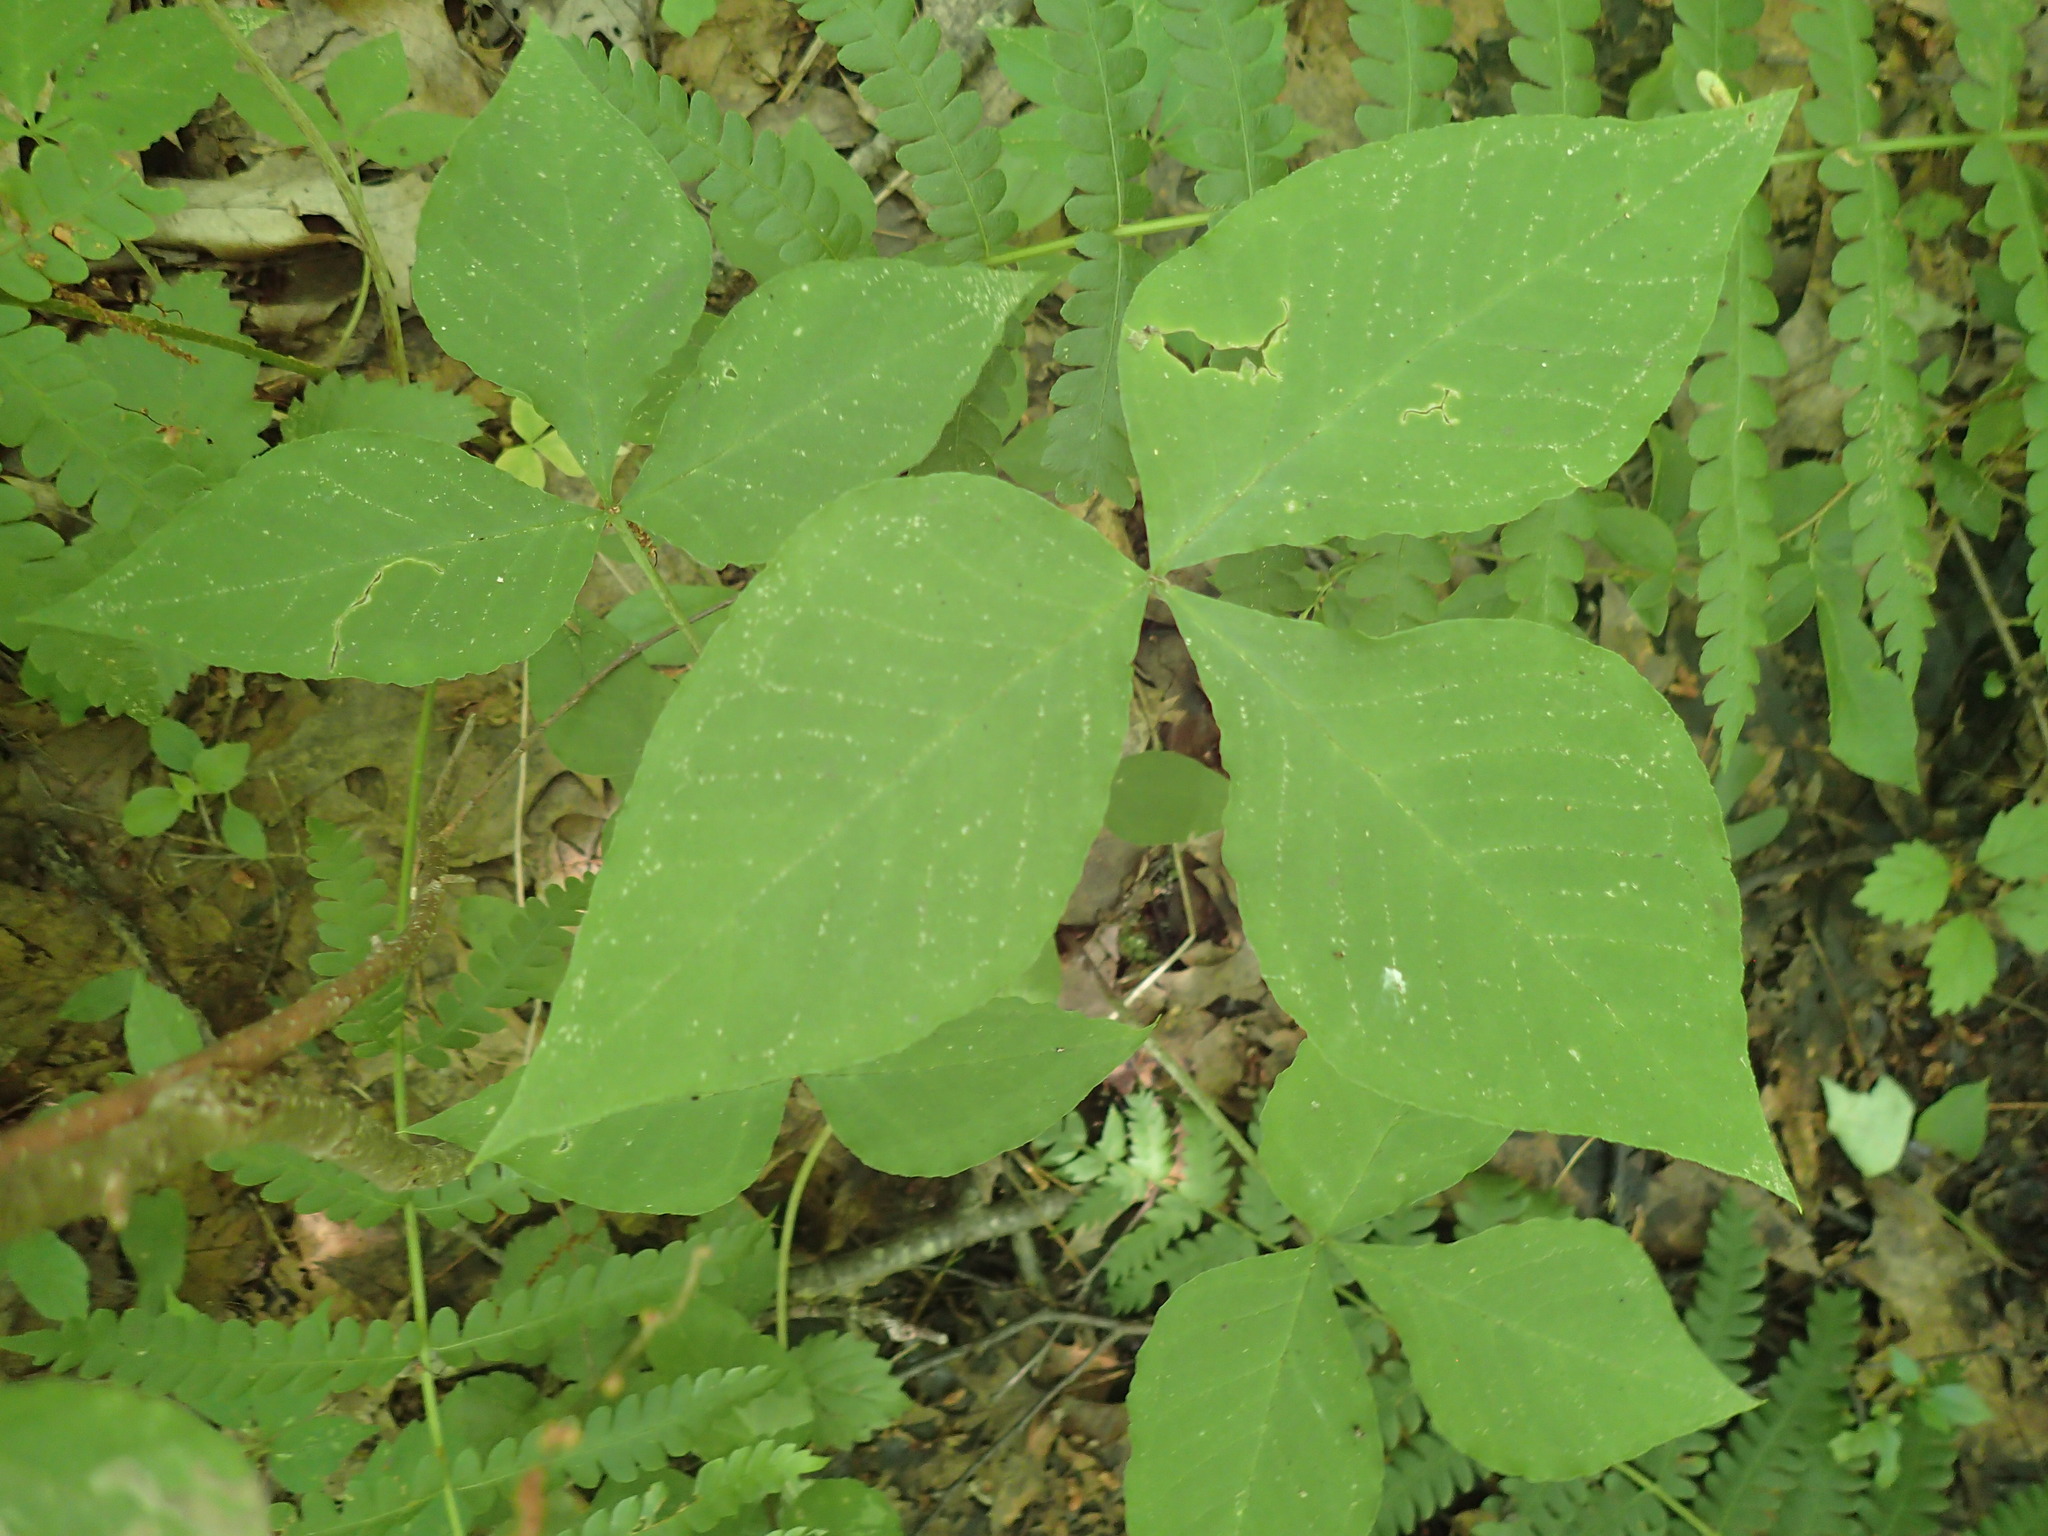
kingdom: Plantae
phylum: Tracheophyta
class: Liliopsida
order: Alismatales
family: Araceae
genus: Arisaema
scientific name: Arisaema triphyllum
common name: Jack-in-the-pulpit
